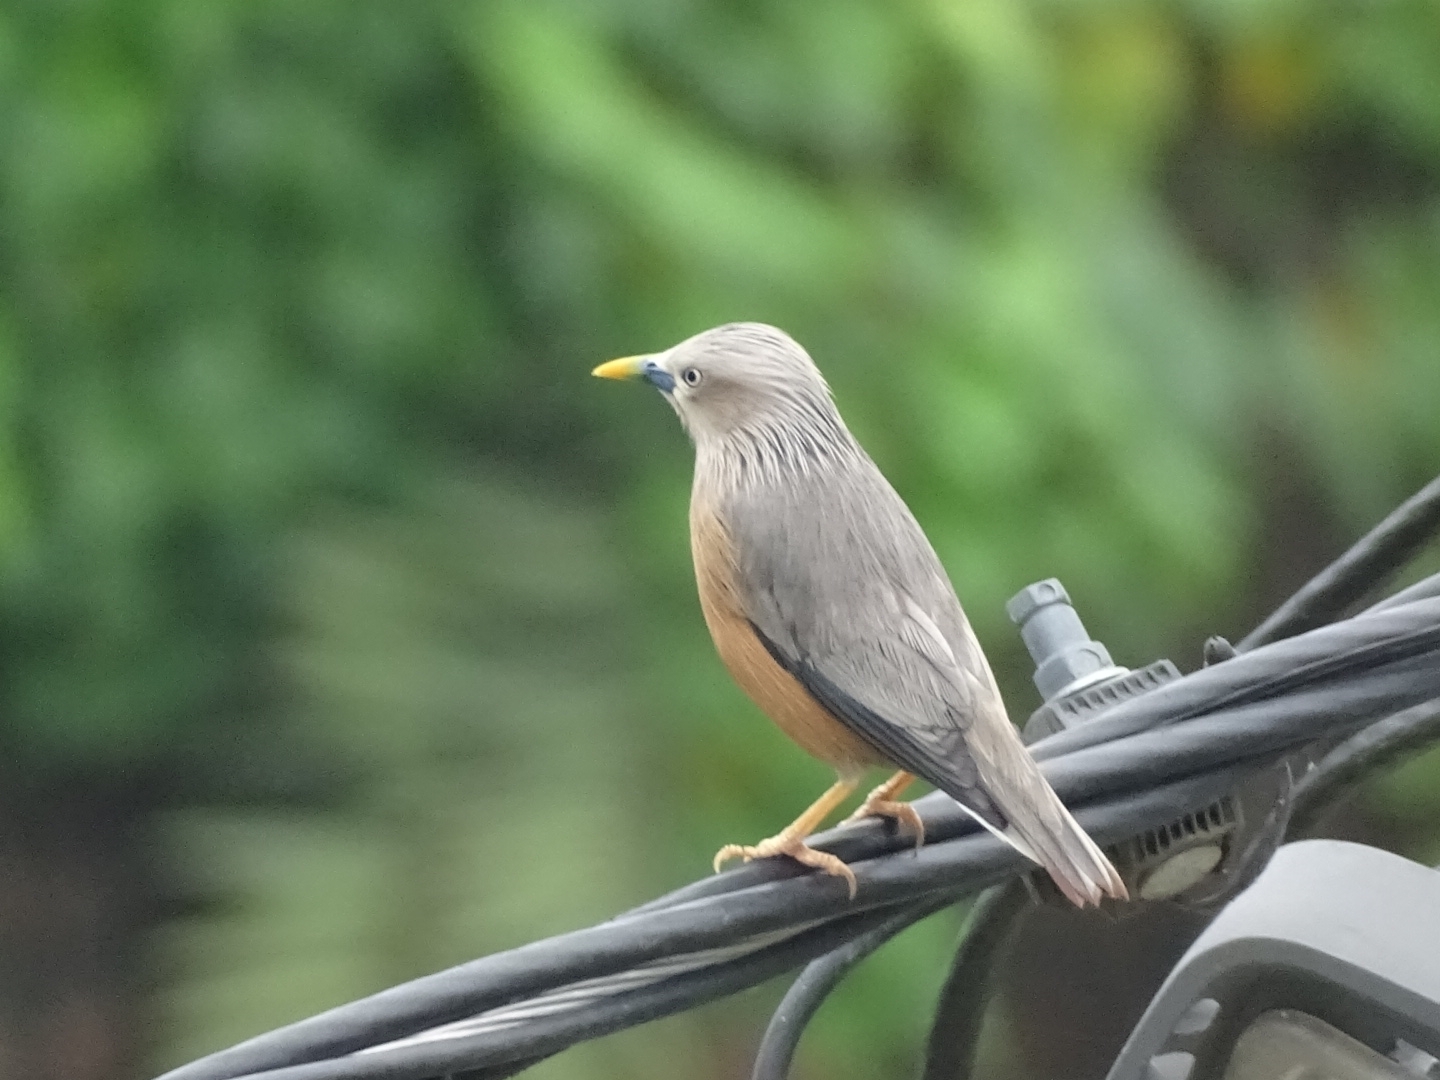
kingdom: Animalia
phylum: Chordata
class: Aves
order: Passeriformes
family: Sturnidae
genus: Sturnia
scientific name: Sturnia malabarica
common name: Chestnut-tailed starling
